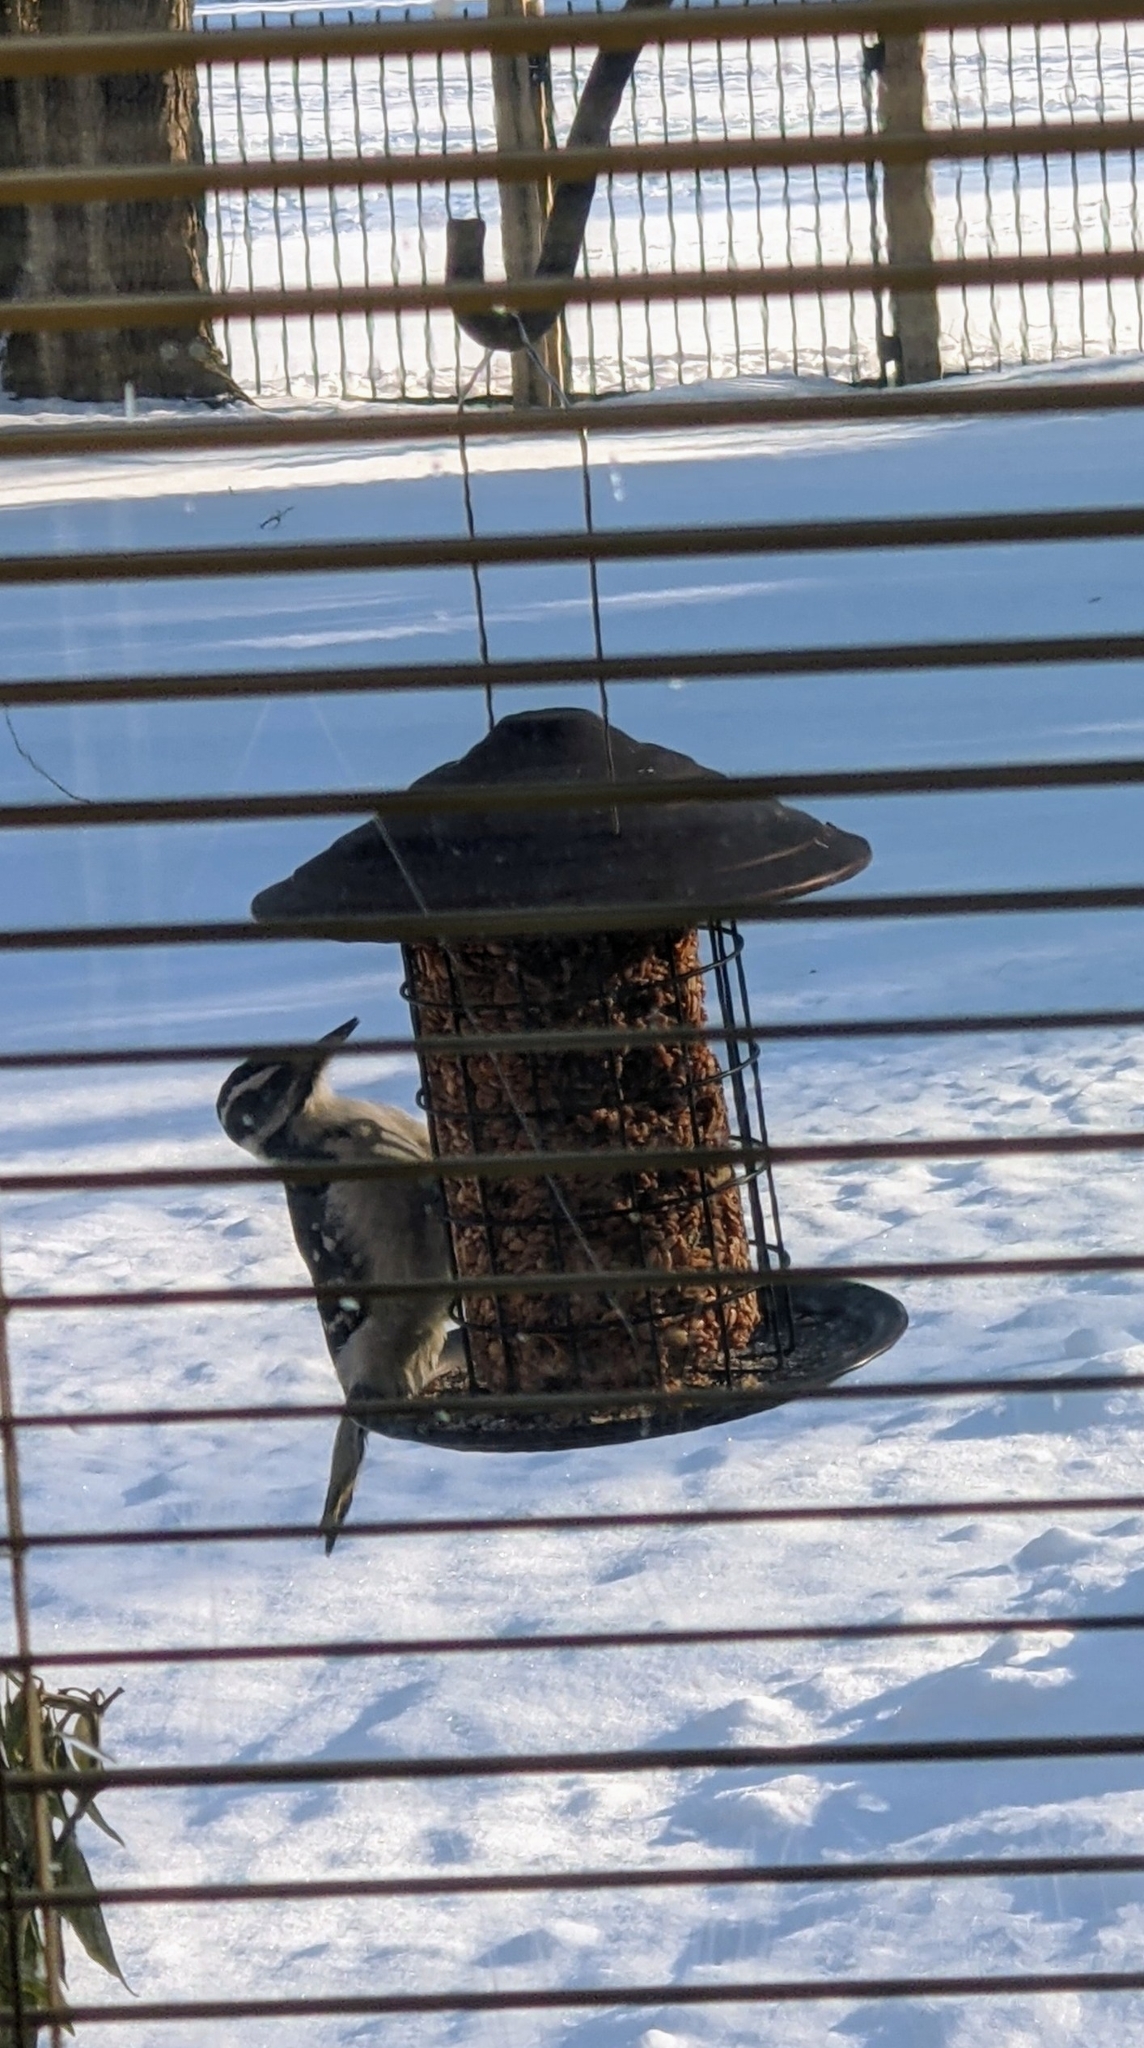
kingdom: Animalia
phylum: Chordata
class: Aves
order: Piciformes
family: Picidae
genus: Leuconotopicus
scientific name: Leuconotopicus villosus
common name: Hairy woodpecker
